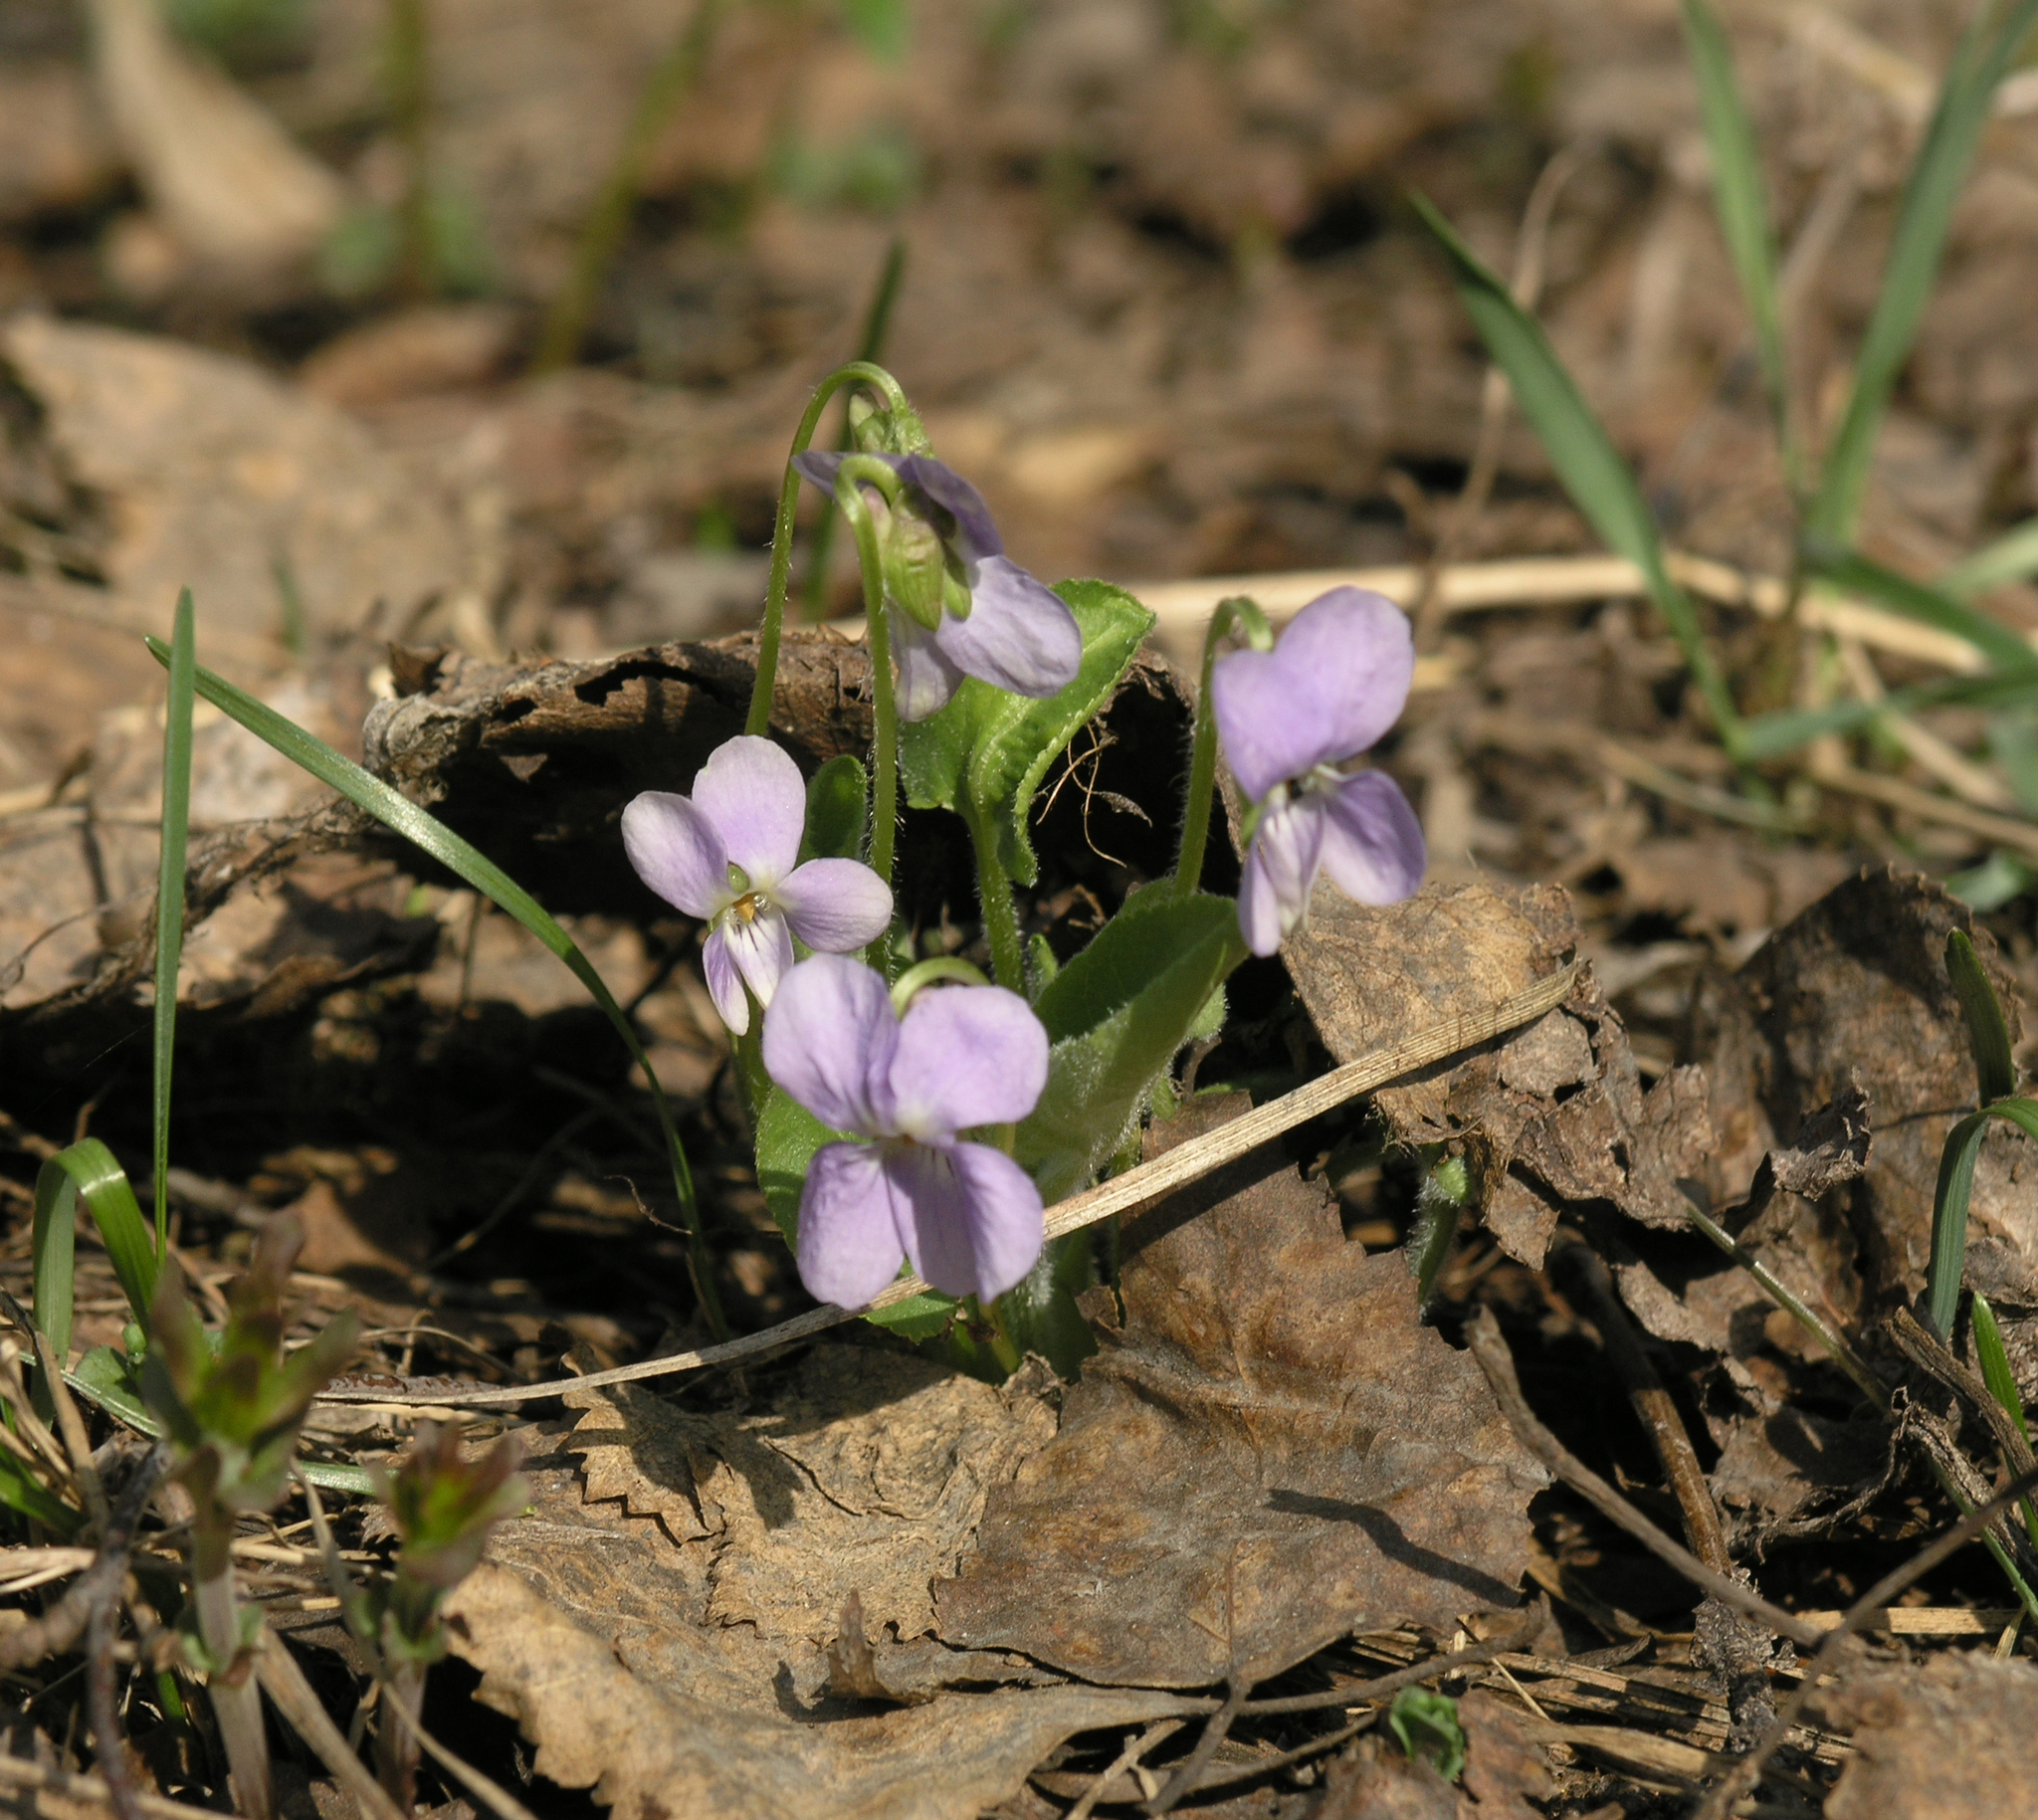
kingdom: Plantae
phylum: Tracheophyta
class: Magnoliopsida
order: Malpighiales
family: Violaceae
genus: Viola
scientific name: Viola hirta
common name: Hairy violet
